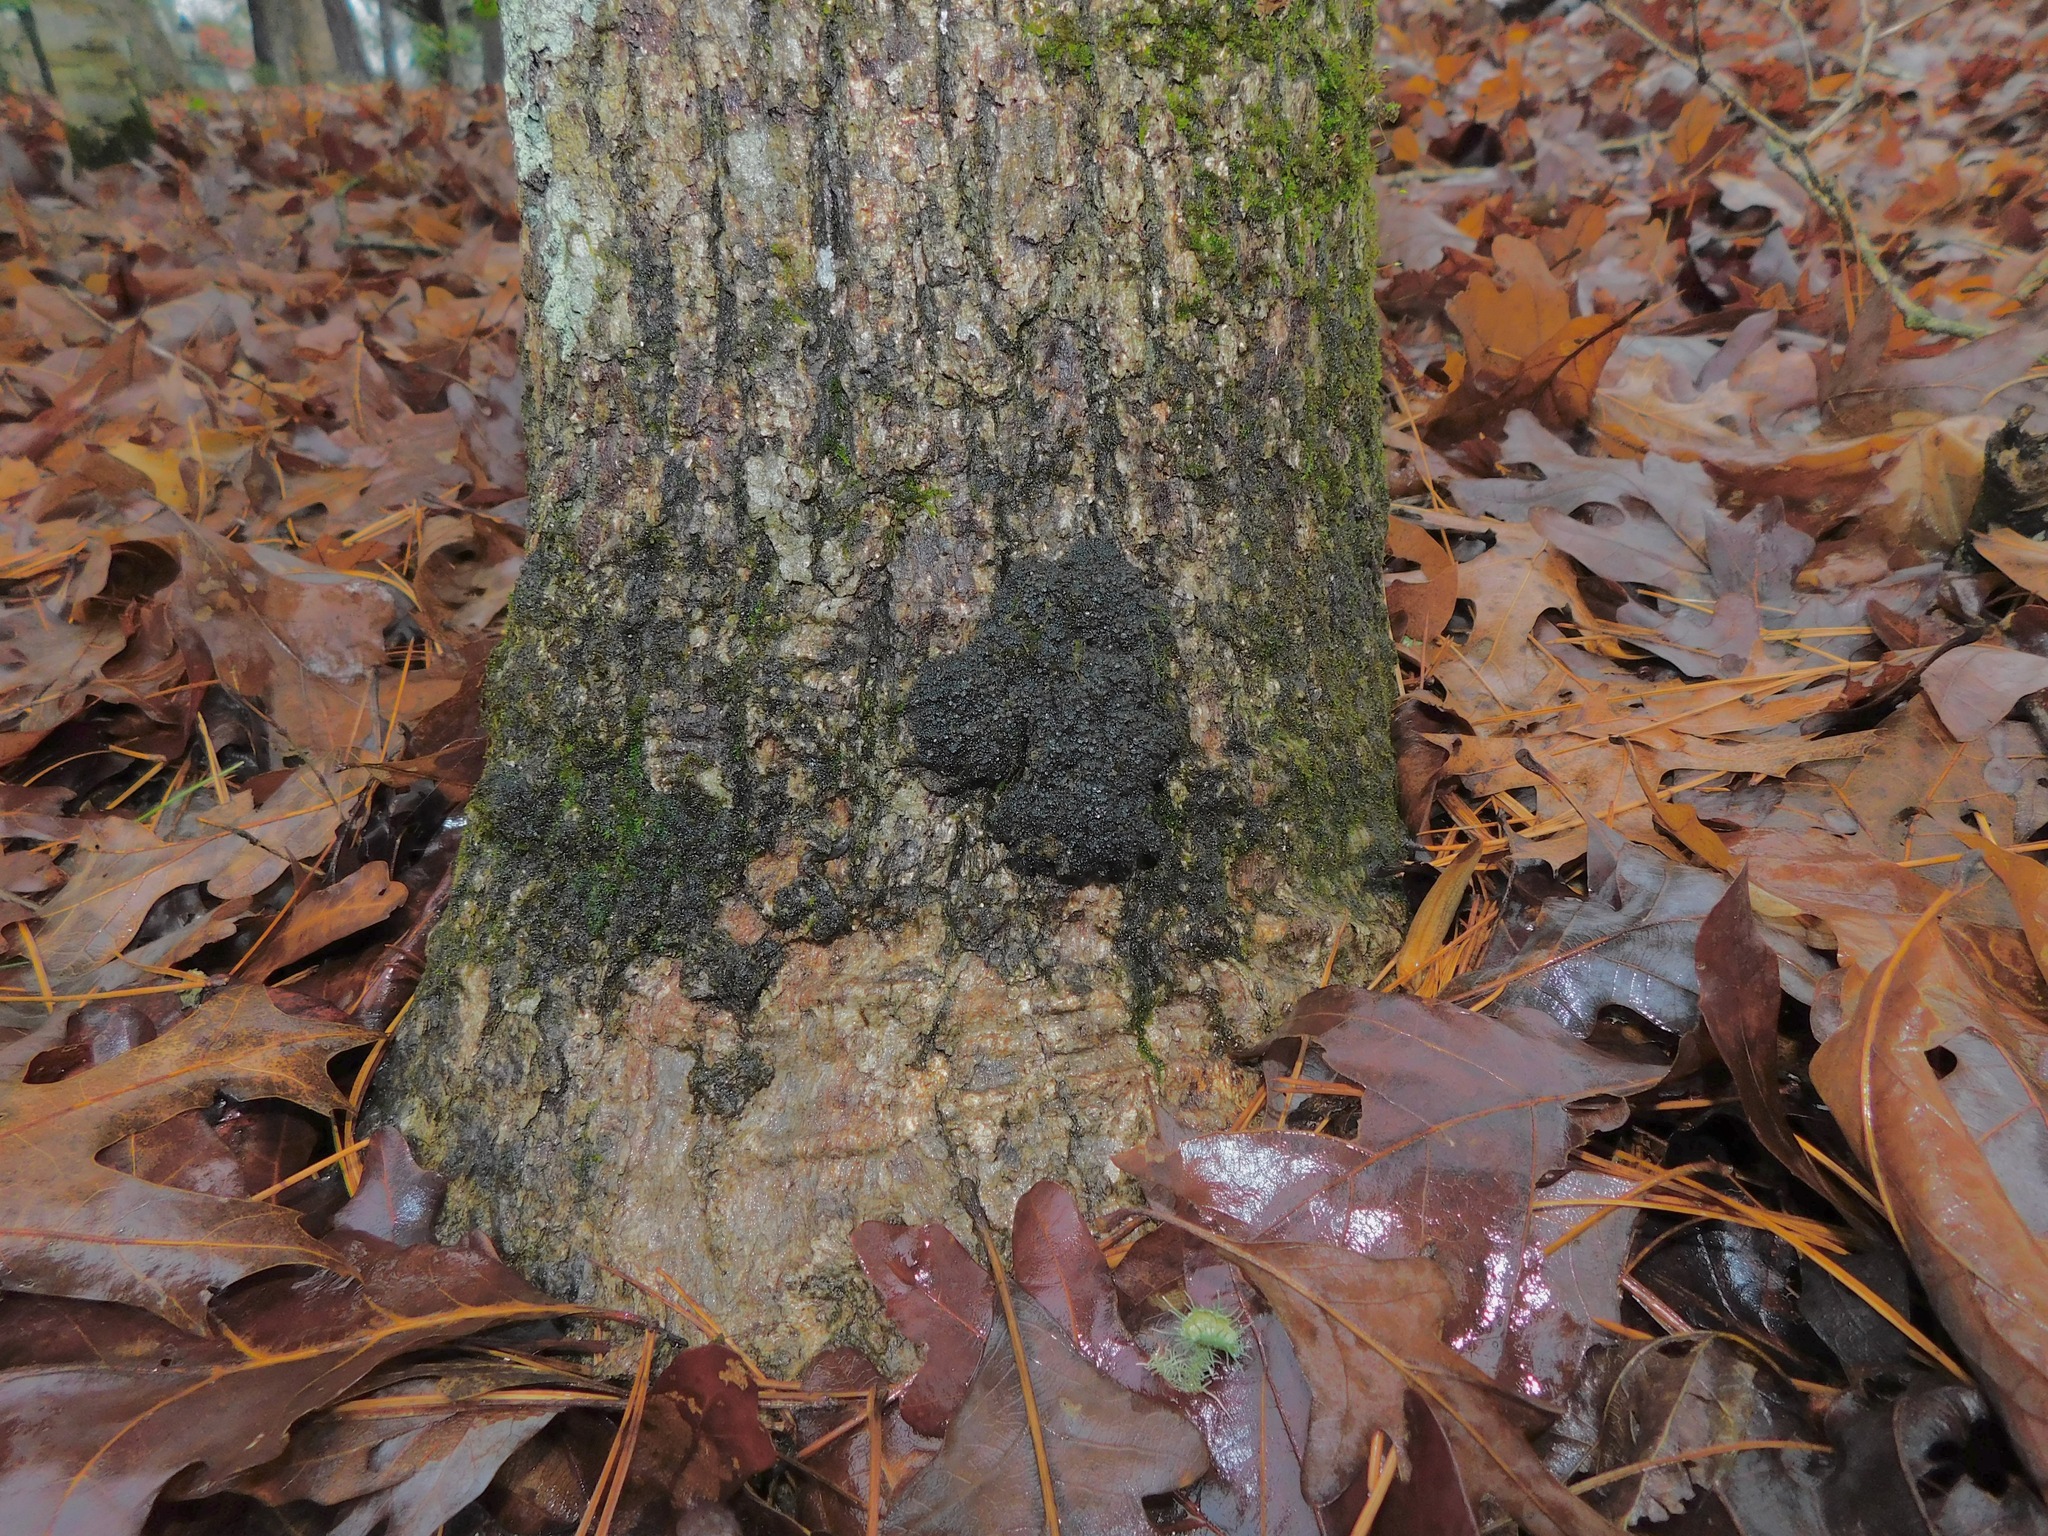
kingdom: Fungi
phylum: Ascomycota
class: Lecanoromycetes
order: Peltigerales
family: Collemataceae
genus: Leptogium
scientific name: Leptogium chloromelum
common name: Ruffled jellyskin
